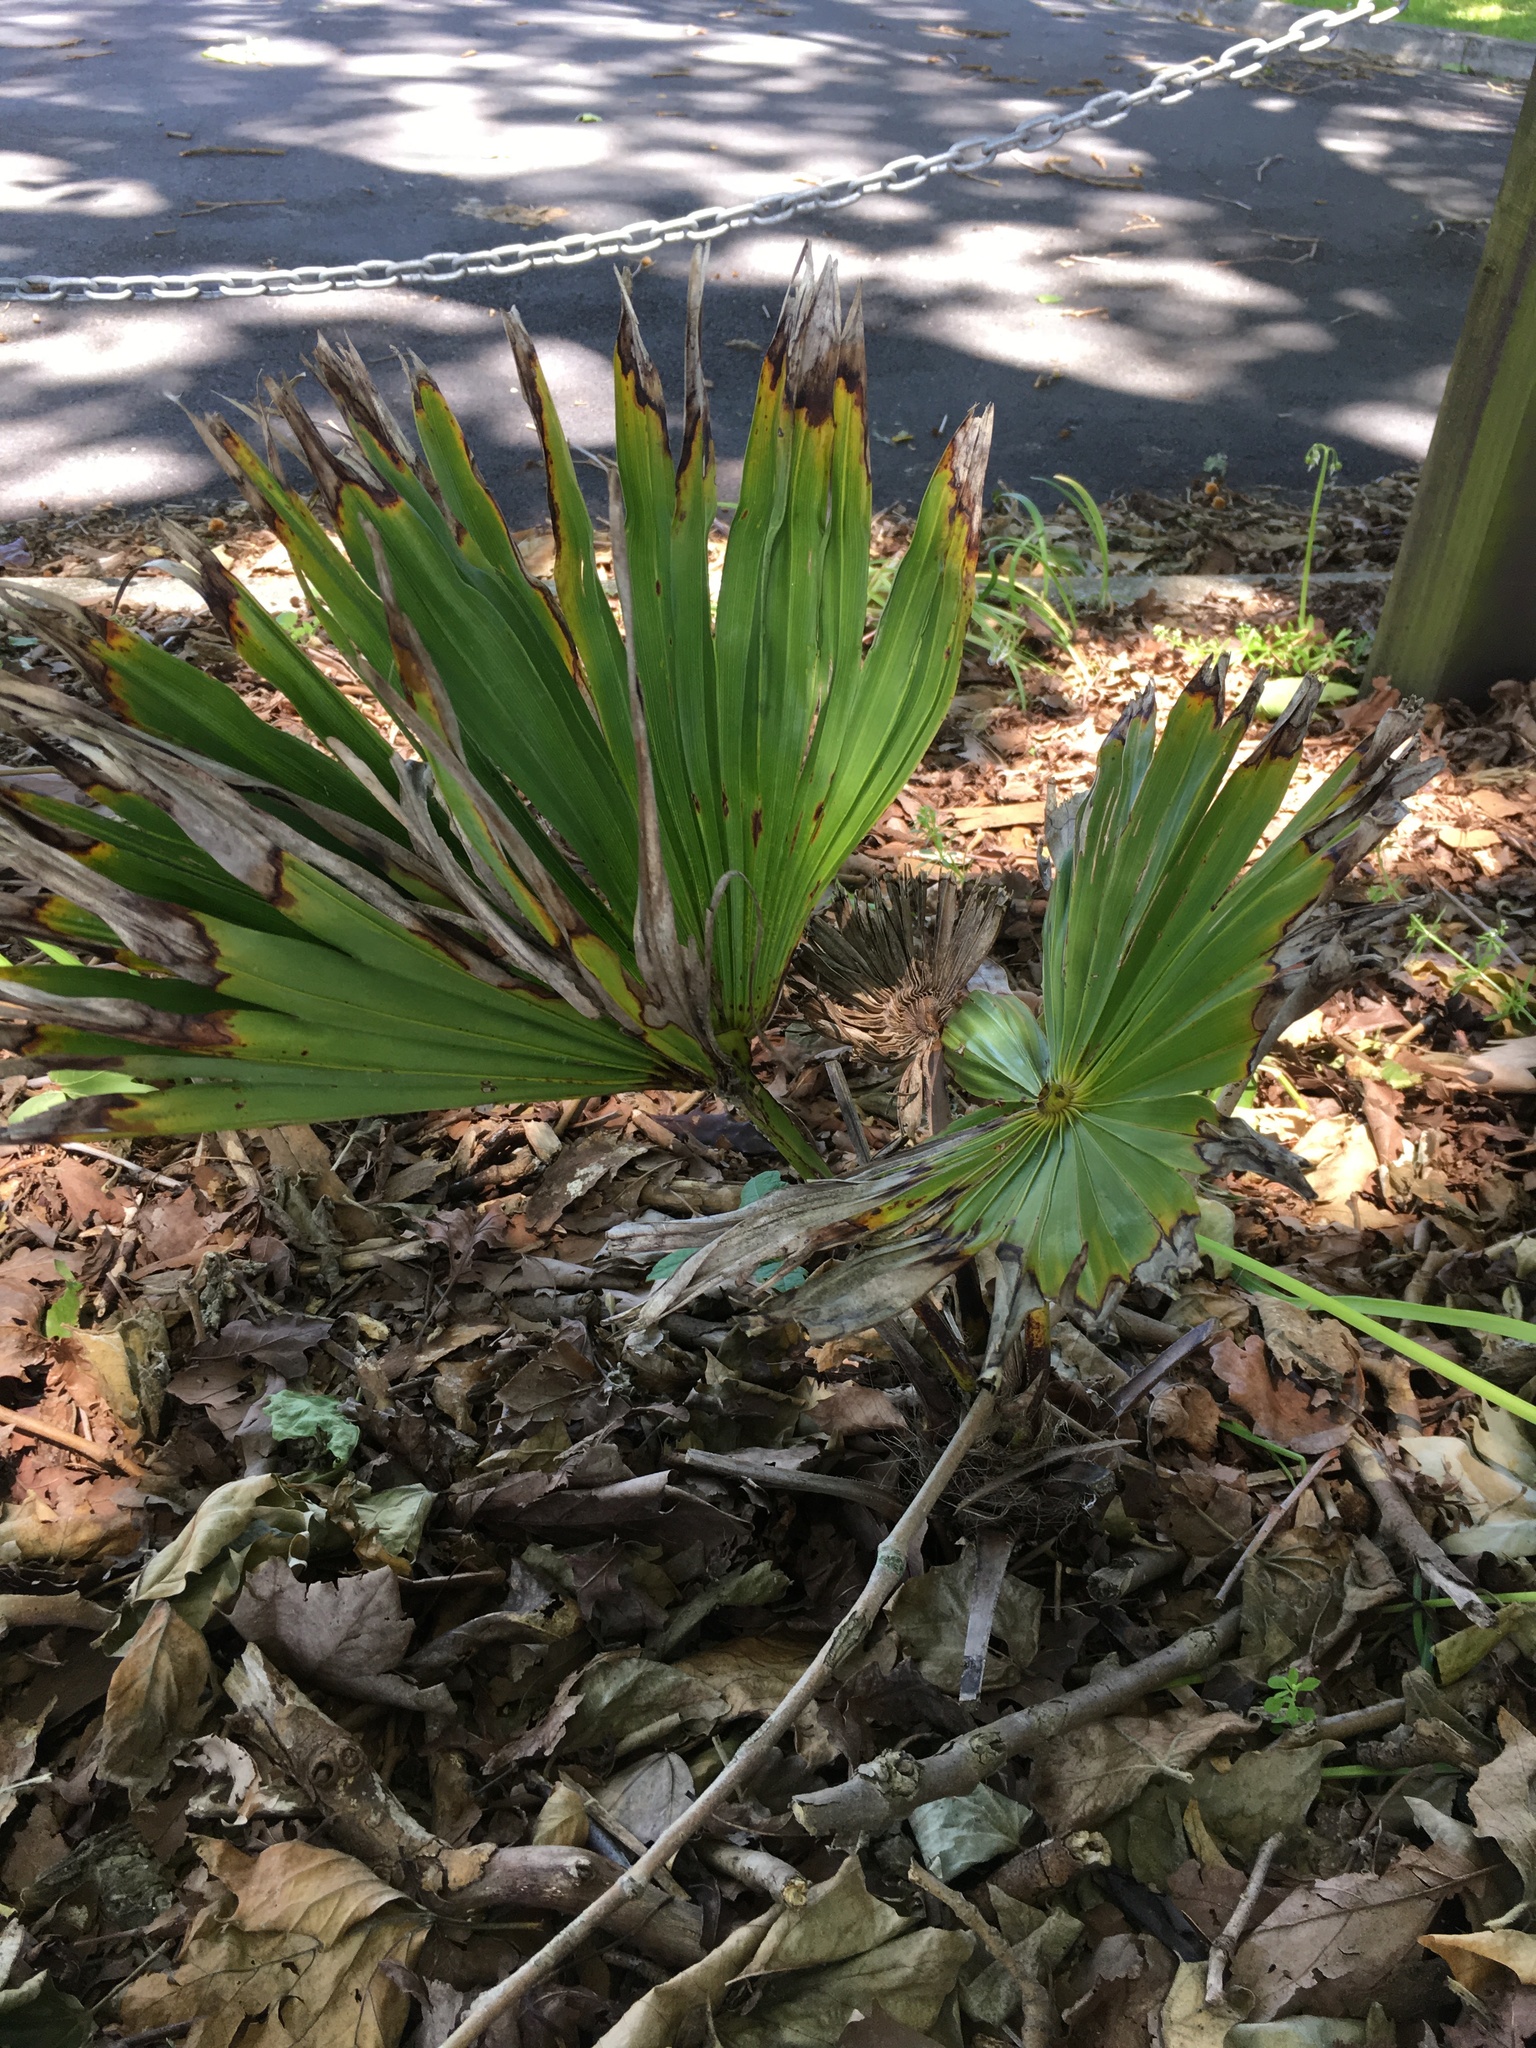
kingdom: Plantae
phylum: Tracheophyta
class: Liliopsida
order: Arecales
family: Arecaceae
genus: Trachycarpus
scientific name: Trachycarpus fortunei
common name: Chusan palm
